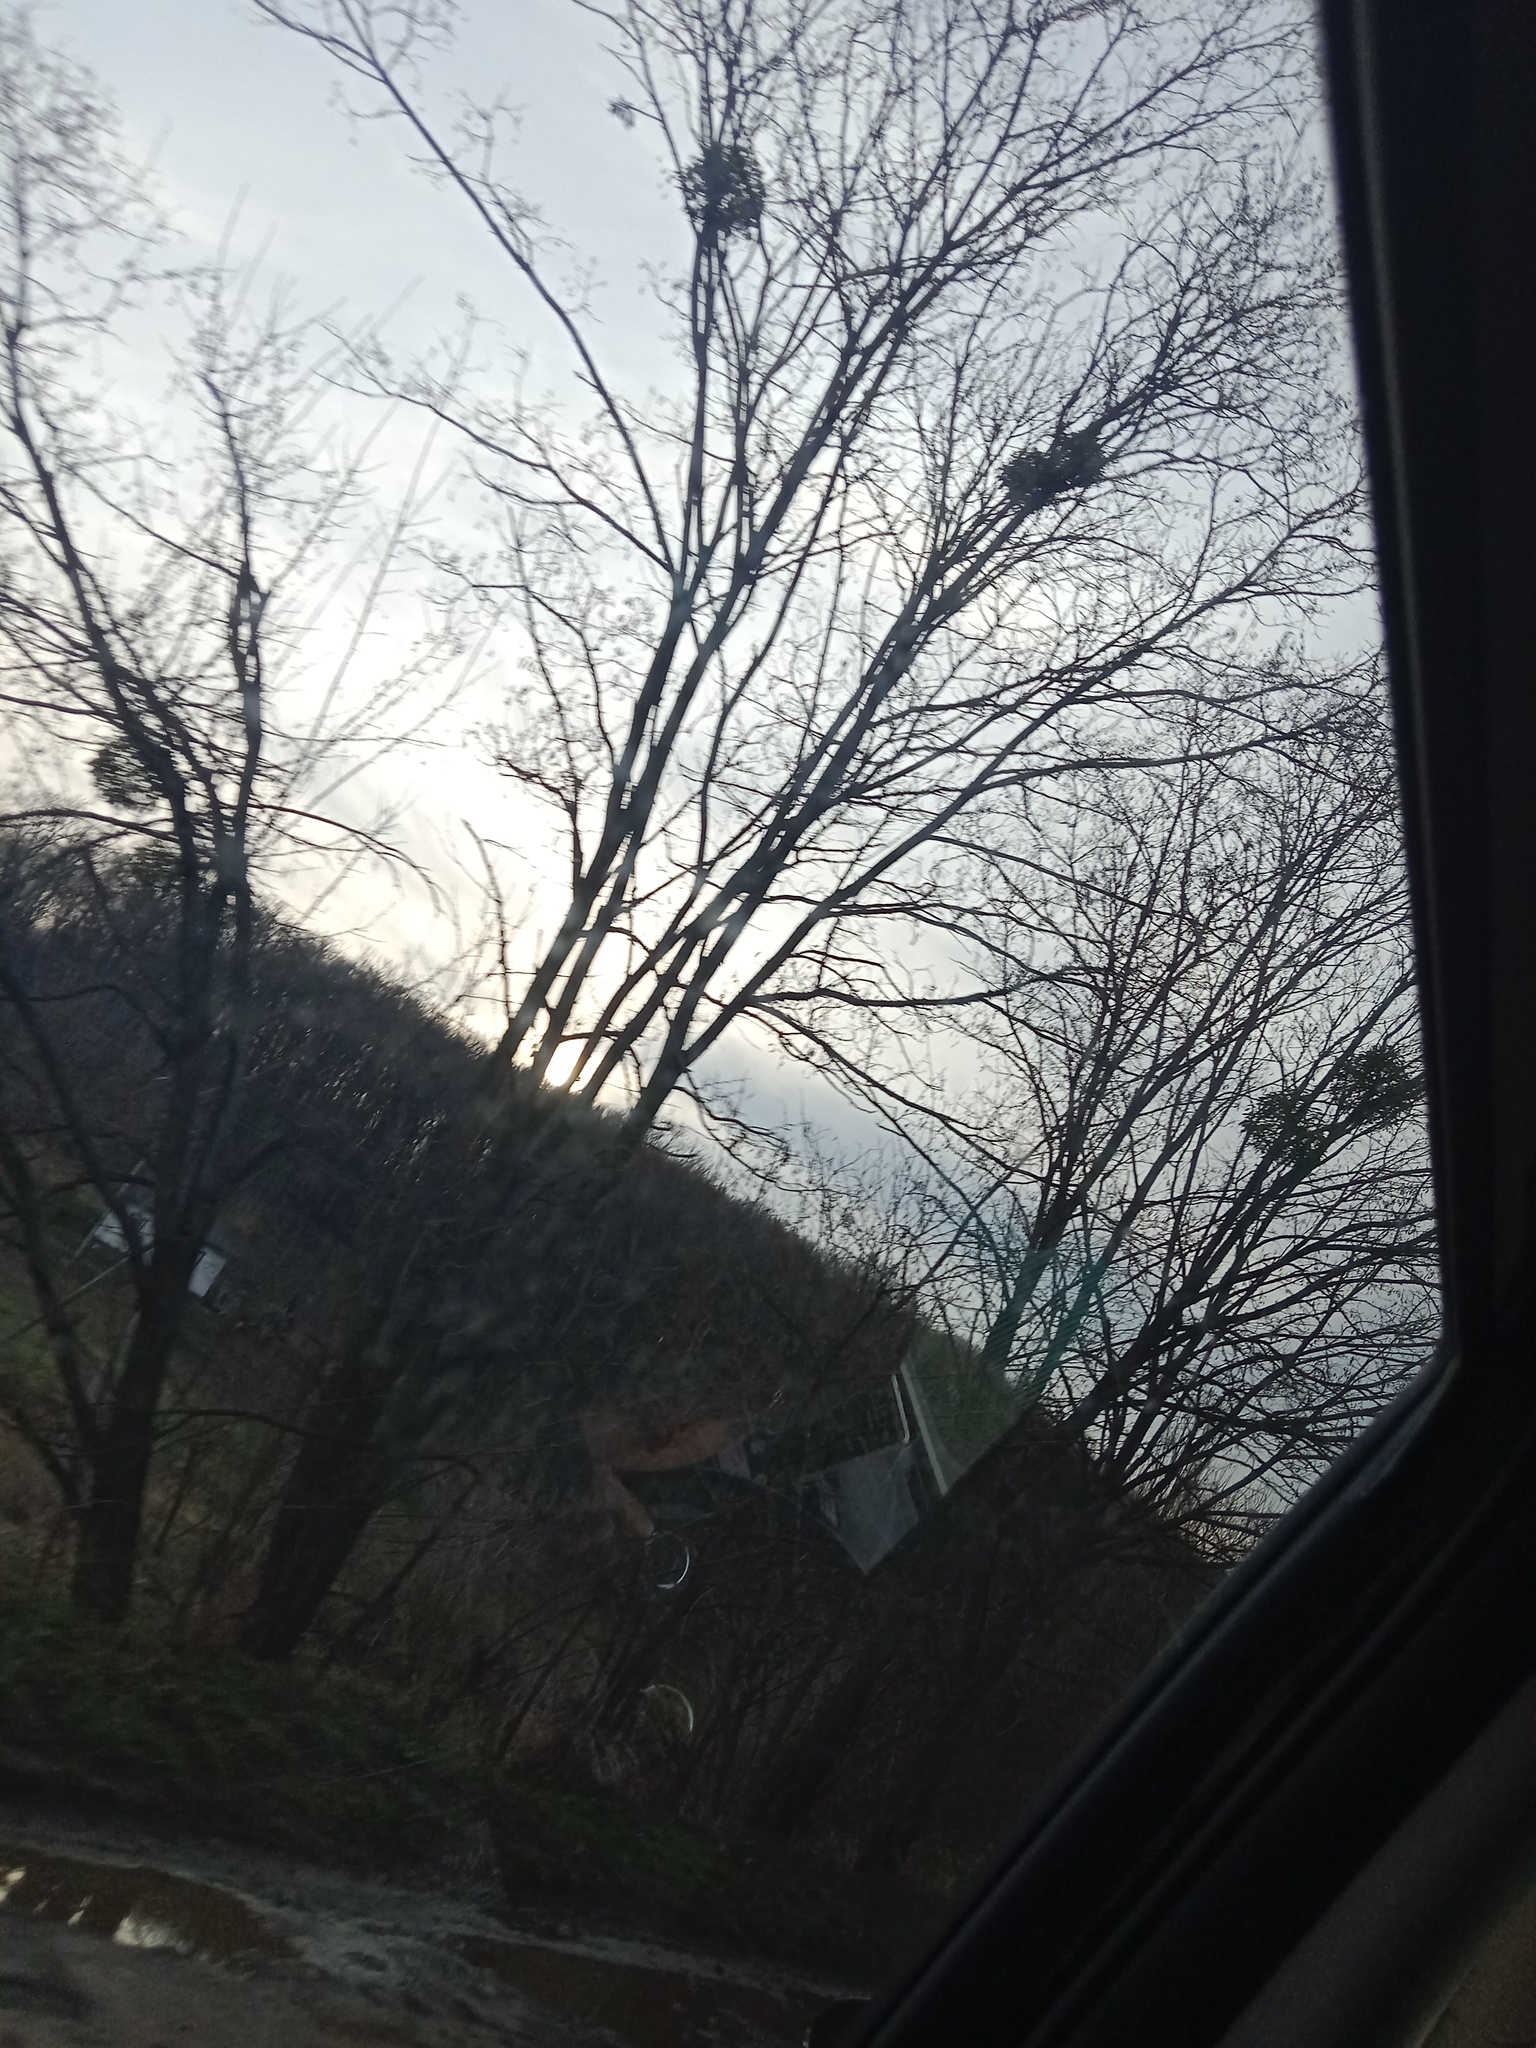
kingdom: Plantae
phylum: Tracheophyta
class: Magnoliopsida
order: Santalales
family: Viscaceae
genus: Viscum
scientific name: Viscum album
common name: Mistletoe
